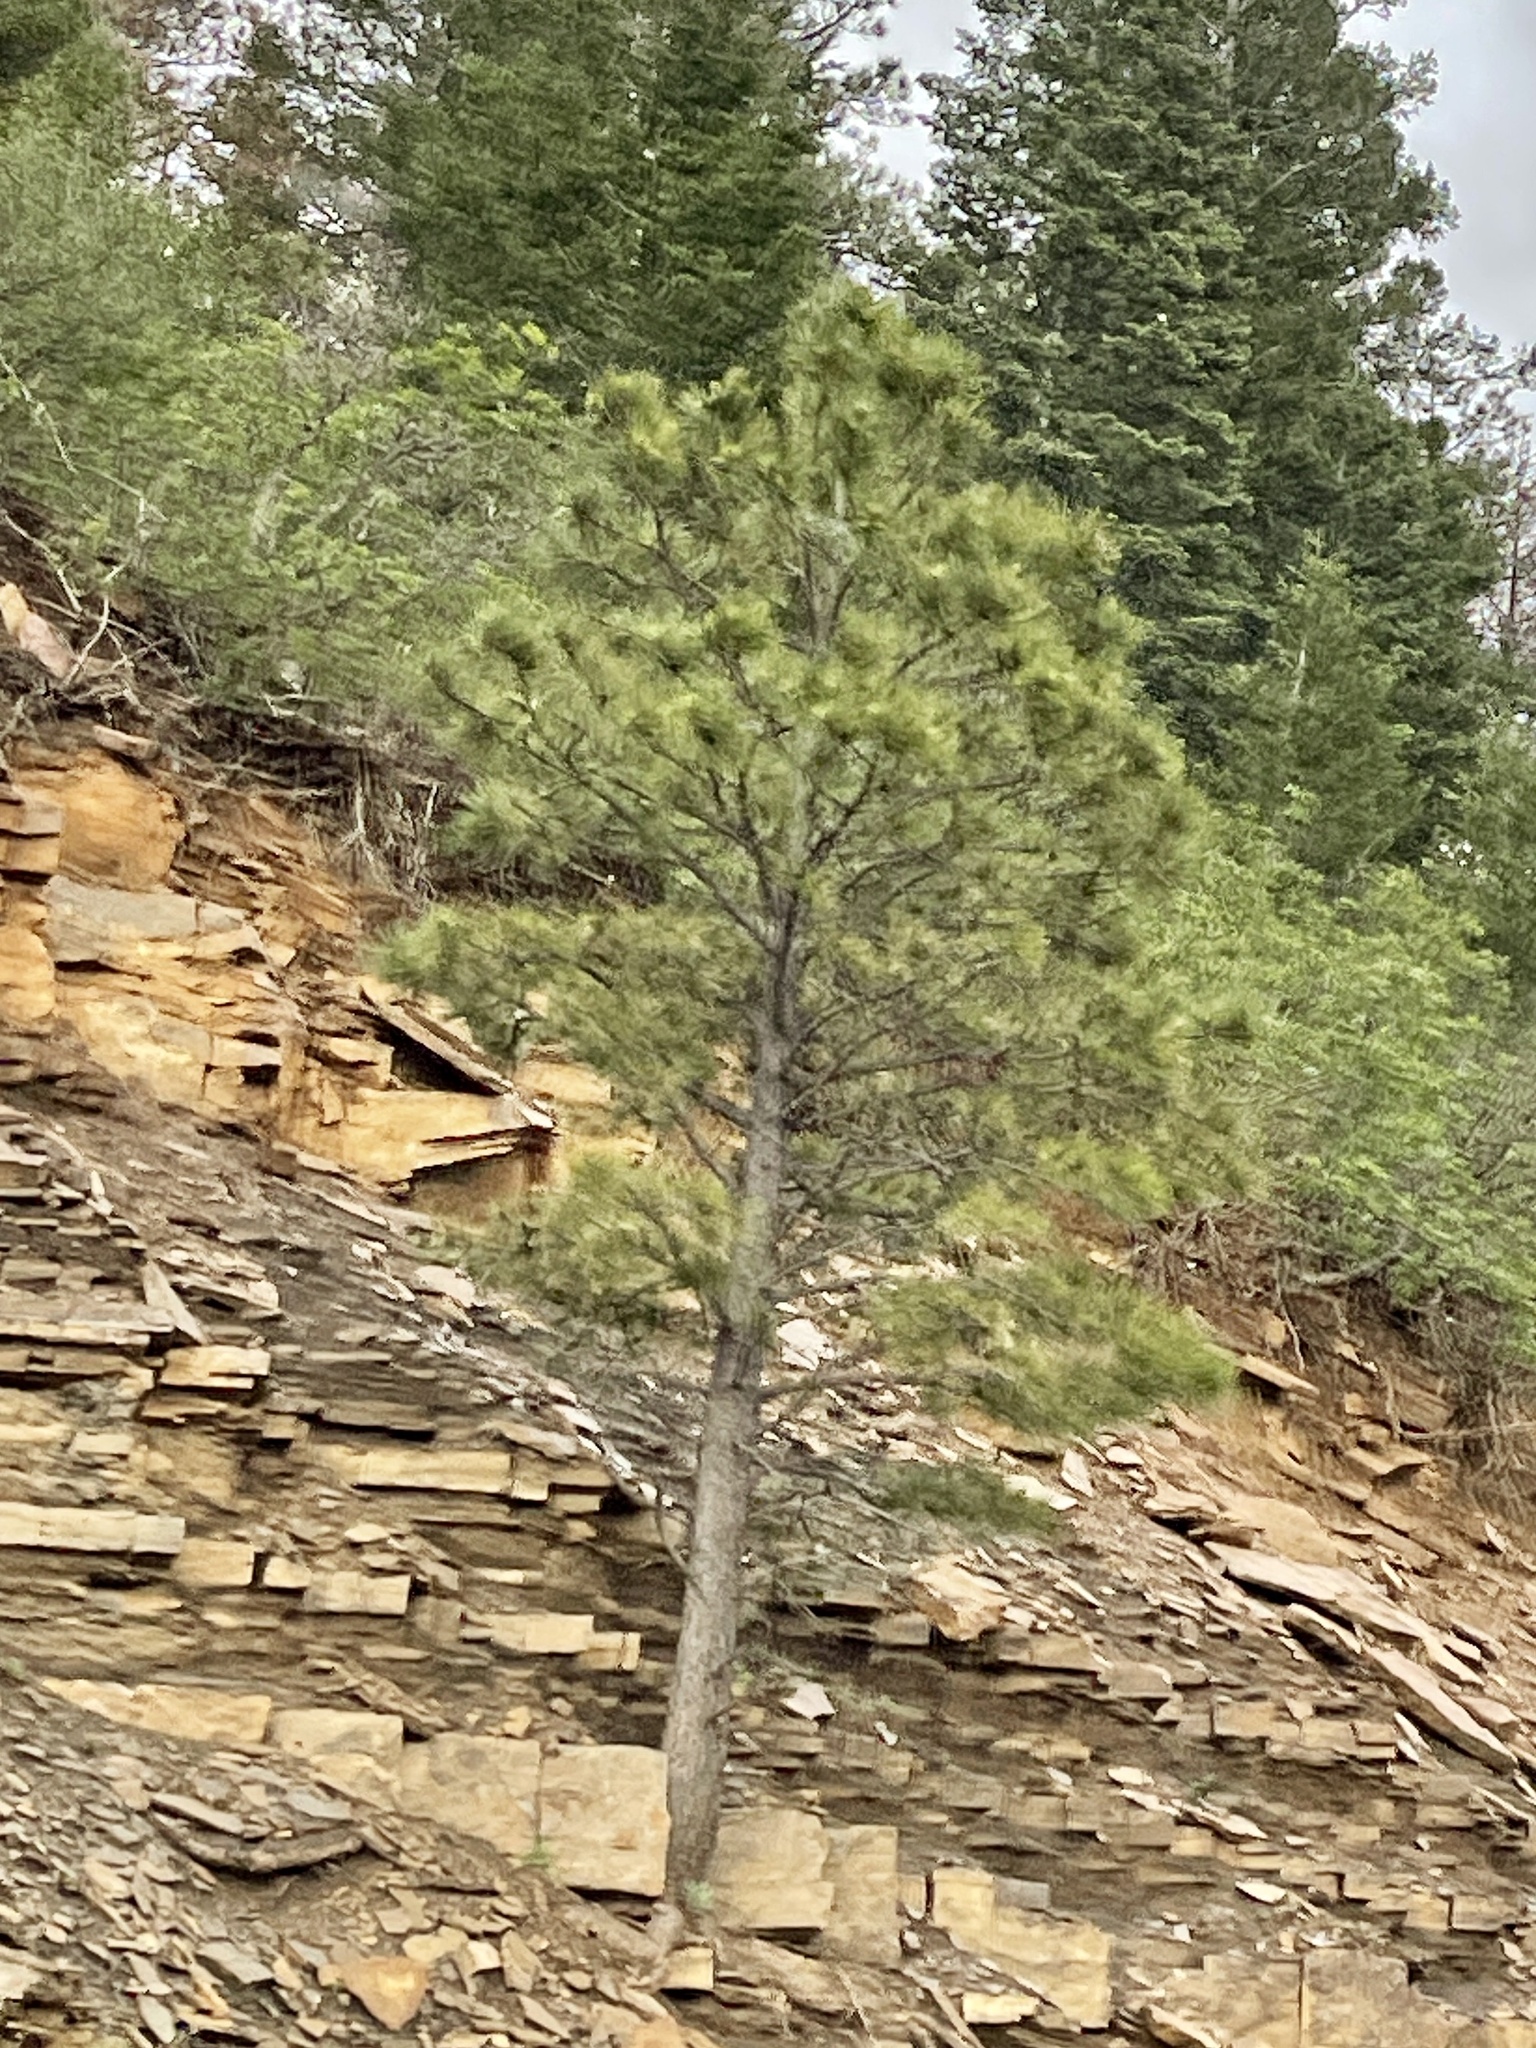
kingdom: Plantae
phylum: Tracheophyta
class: Pinopsida
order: Pinales
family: Pinaceae
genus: Pinus
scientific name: Pinus ponderosa
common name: Western yellow-pine
